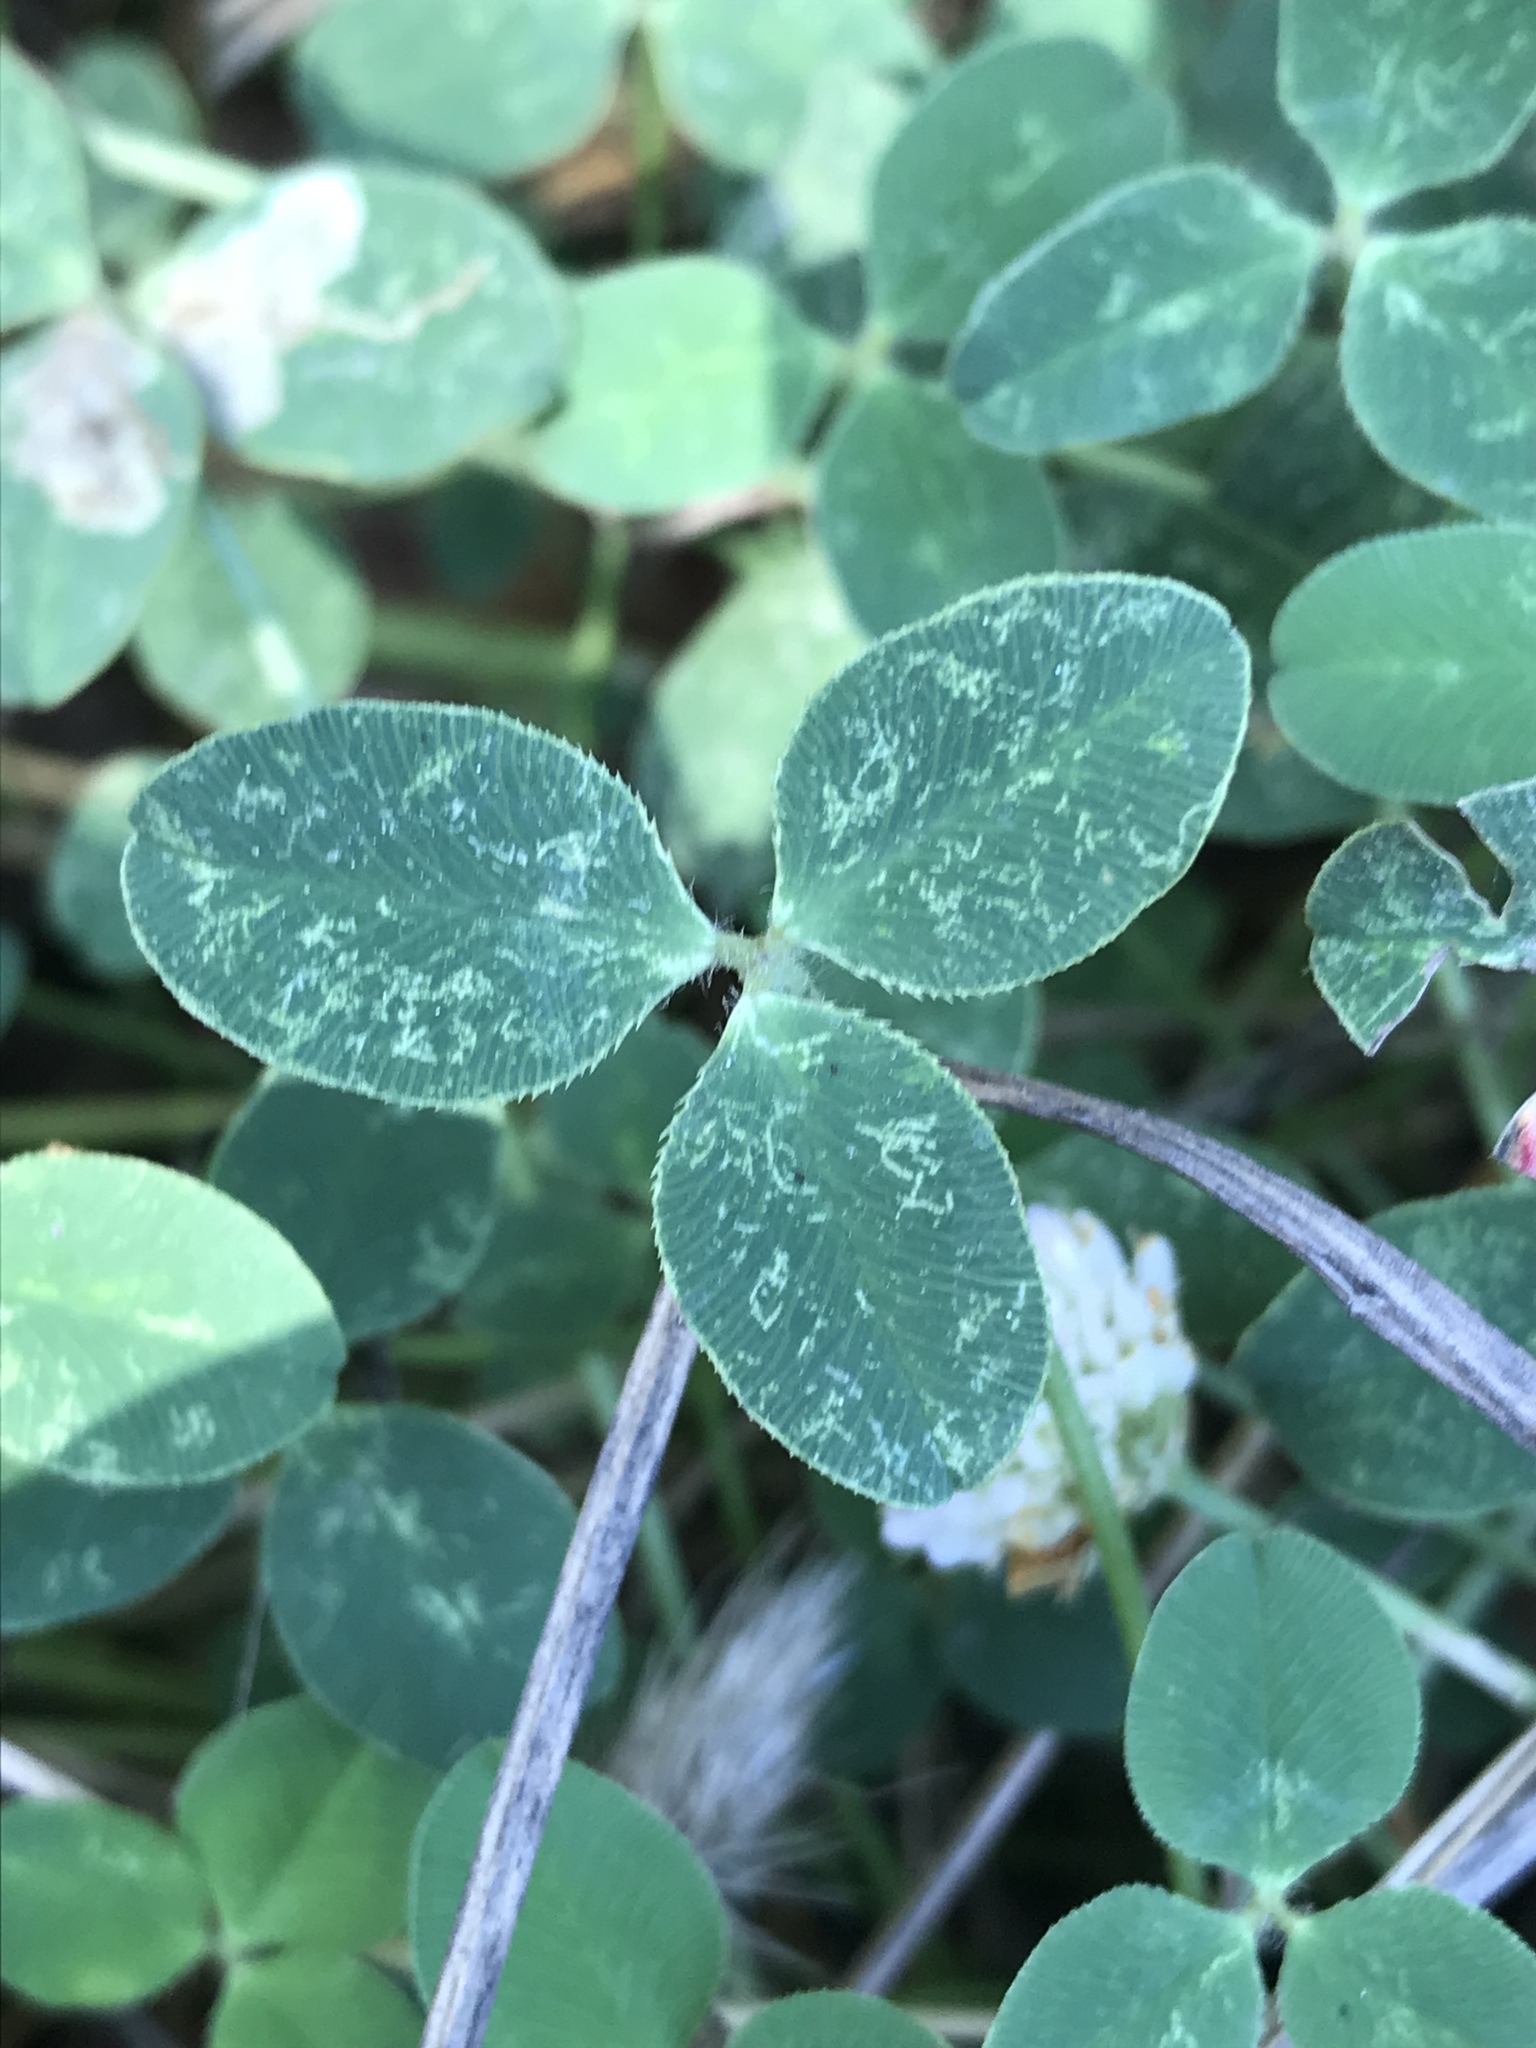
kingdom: Plantae
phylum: Tracheophyta
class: Magnoliopsida
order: Fabales
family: Fabaceae
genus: Trifolium
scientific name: Trifolium fragiferum
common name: Strawberry clover
